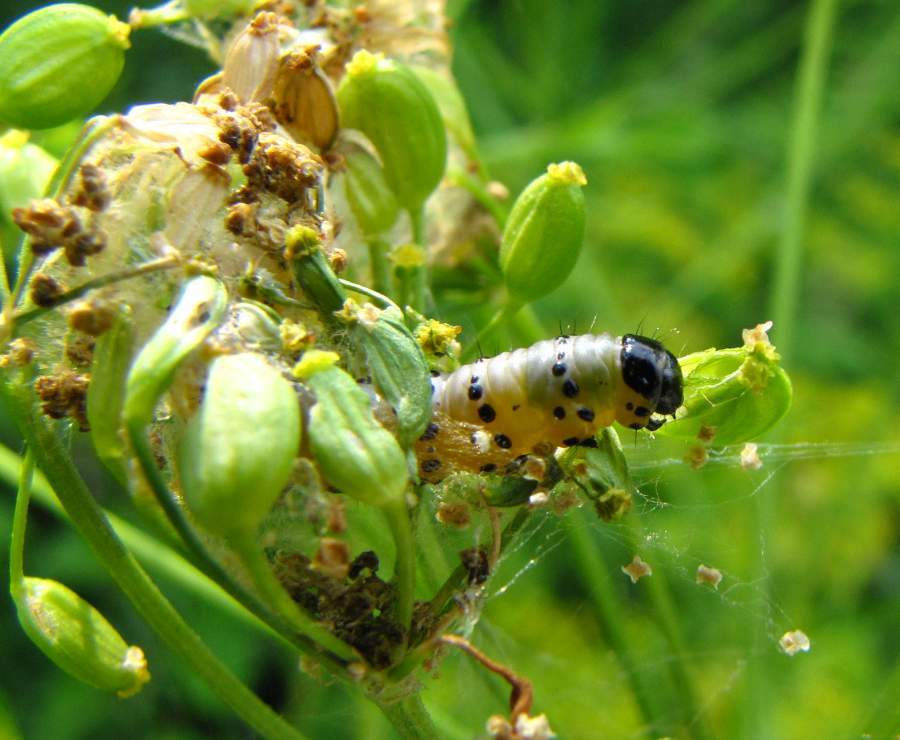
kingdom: Animalia
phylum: Arthropoda
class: Insecta
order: Lepidoptera
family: Depressariidae
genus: Depressaria
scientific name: Depressaria radiella
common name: Parsnip moth
